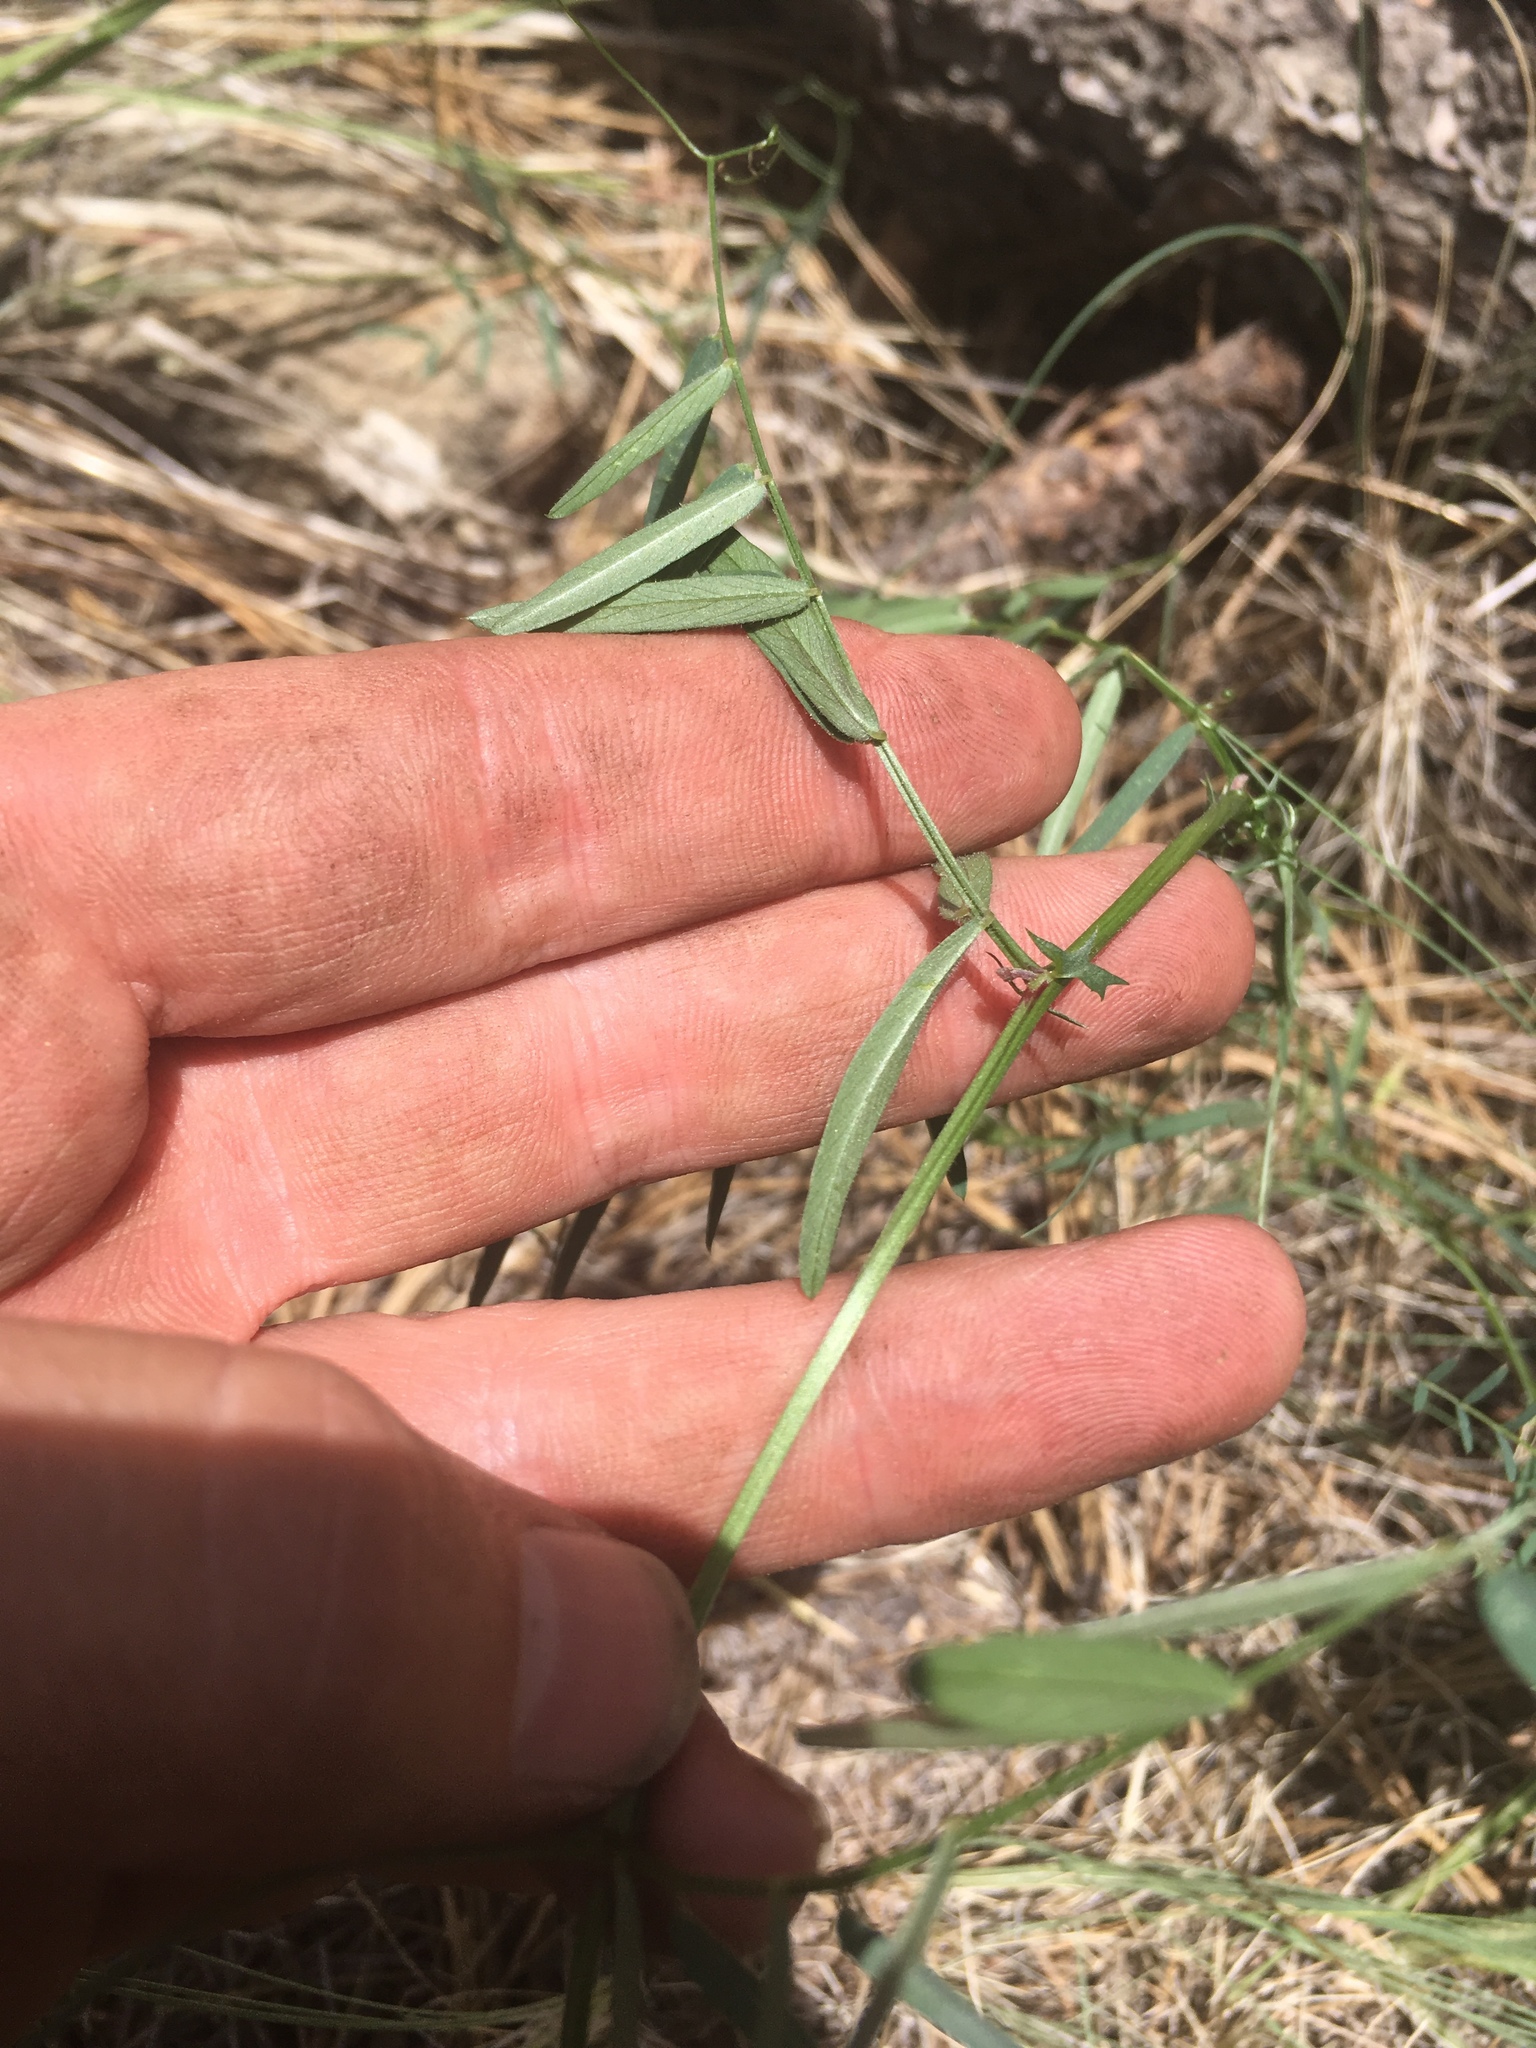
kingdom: Plantae
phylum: Tracheophyta
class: Magnoliopsida
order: Fabales
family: Fabaceae
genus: Vicia
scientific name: Vicia americana
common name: American vetch
